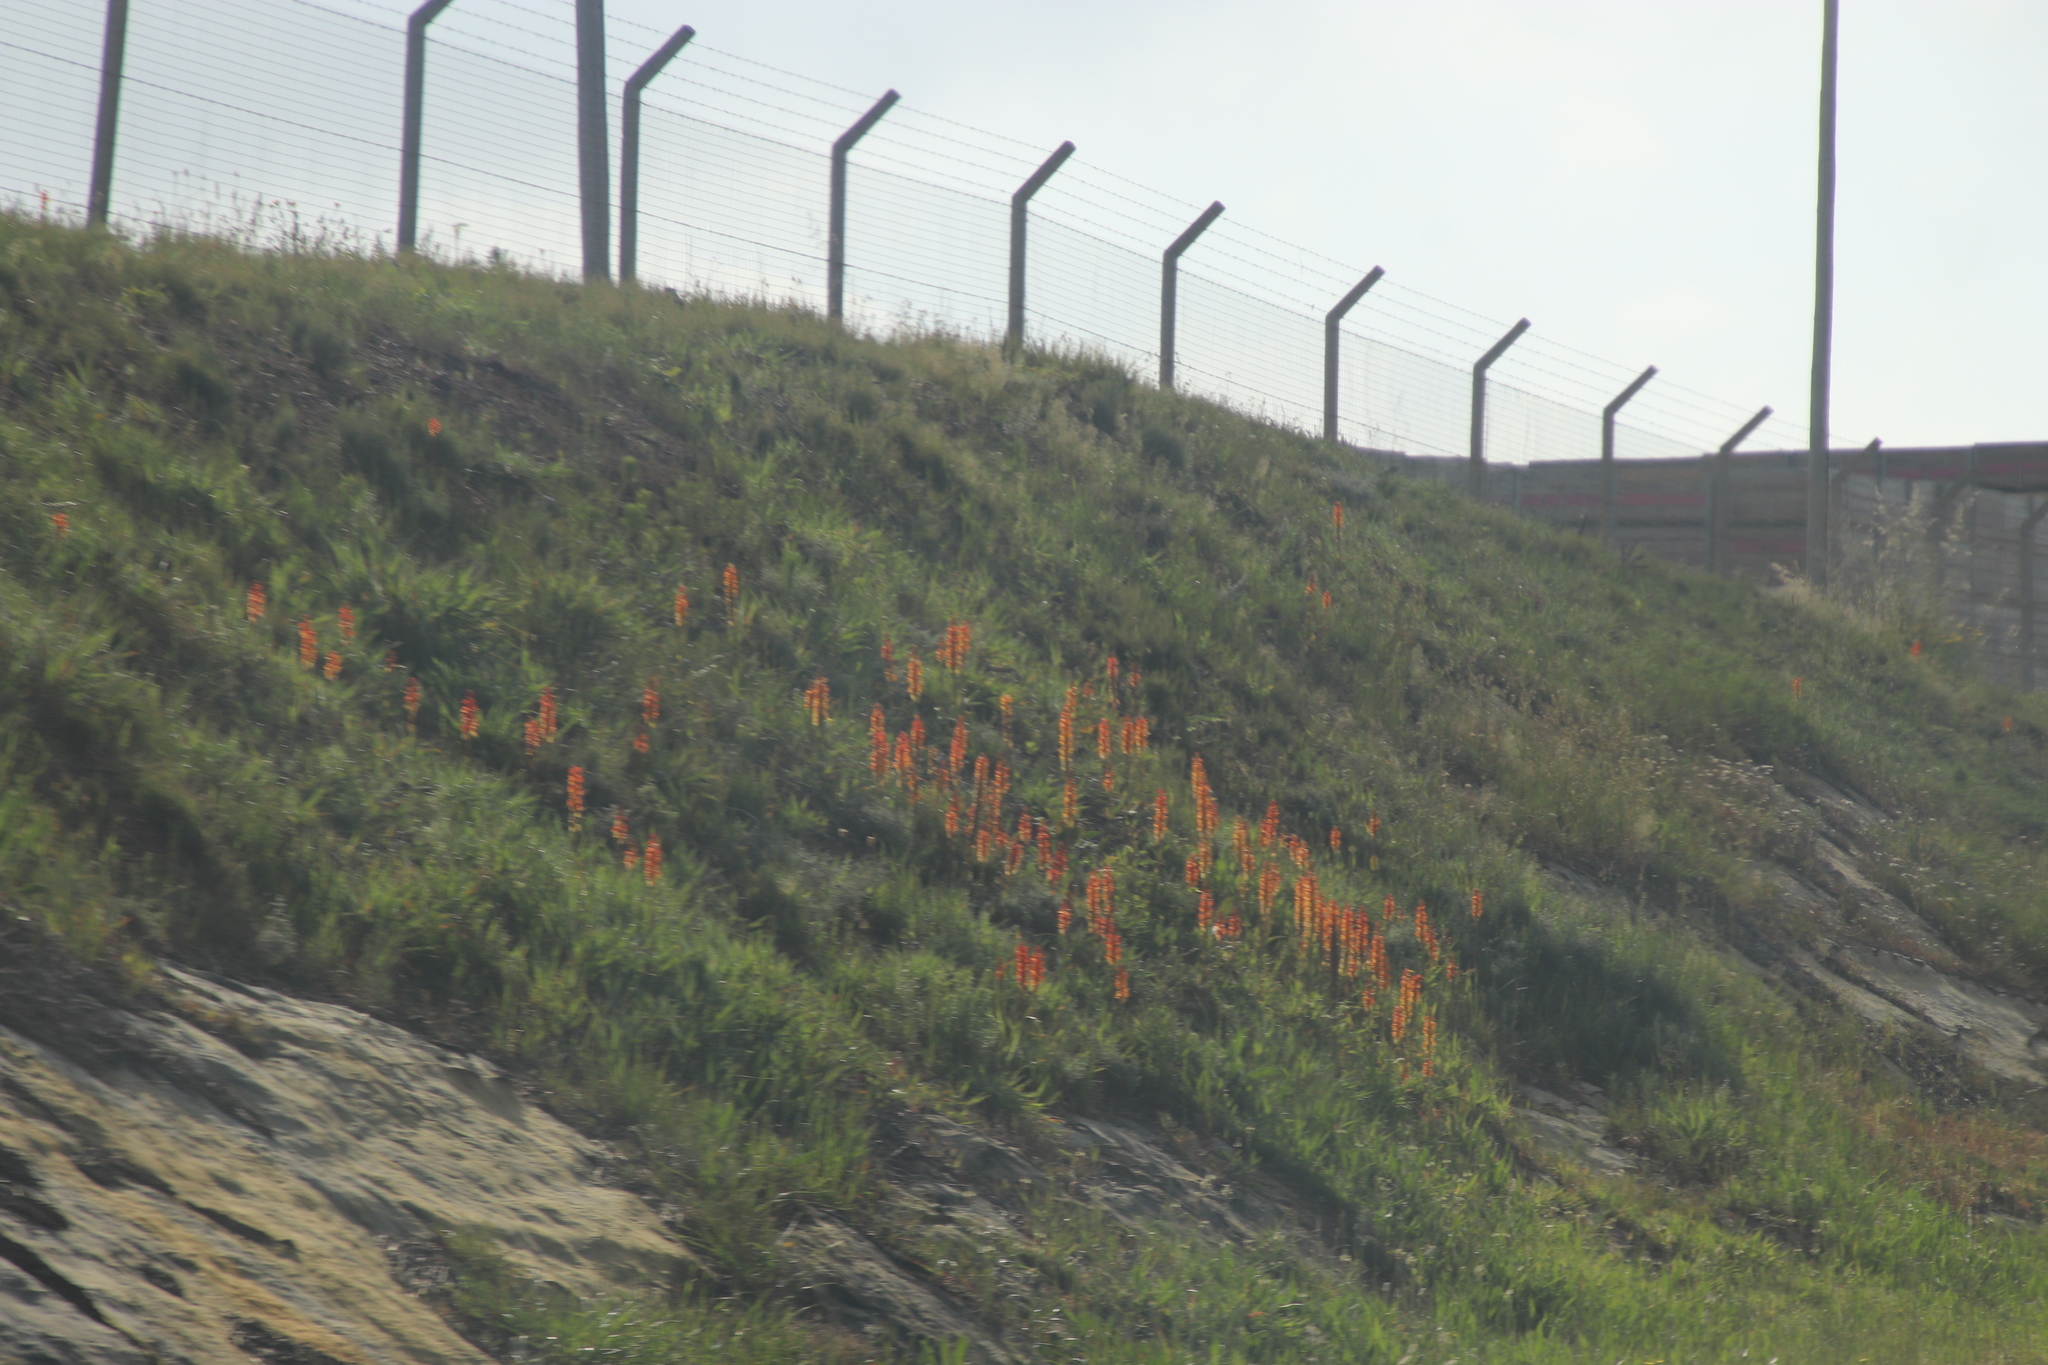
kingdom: Plantae
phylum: Tracheophyta
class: Liliopsida
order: Asparagales
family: Orchidaceae
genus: Satyrium
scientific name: Satyrium coriifolium
